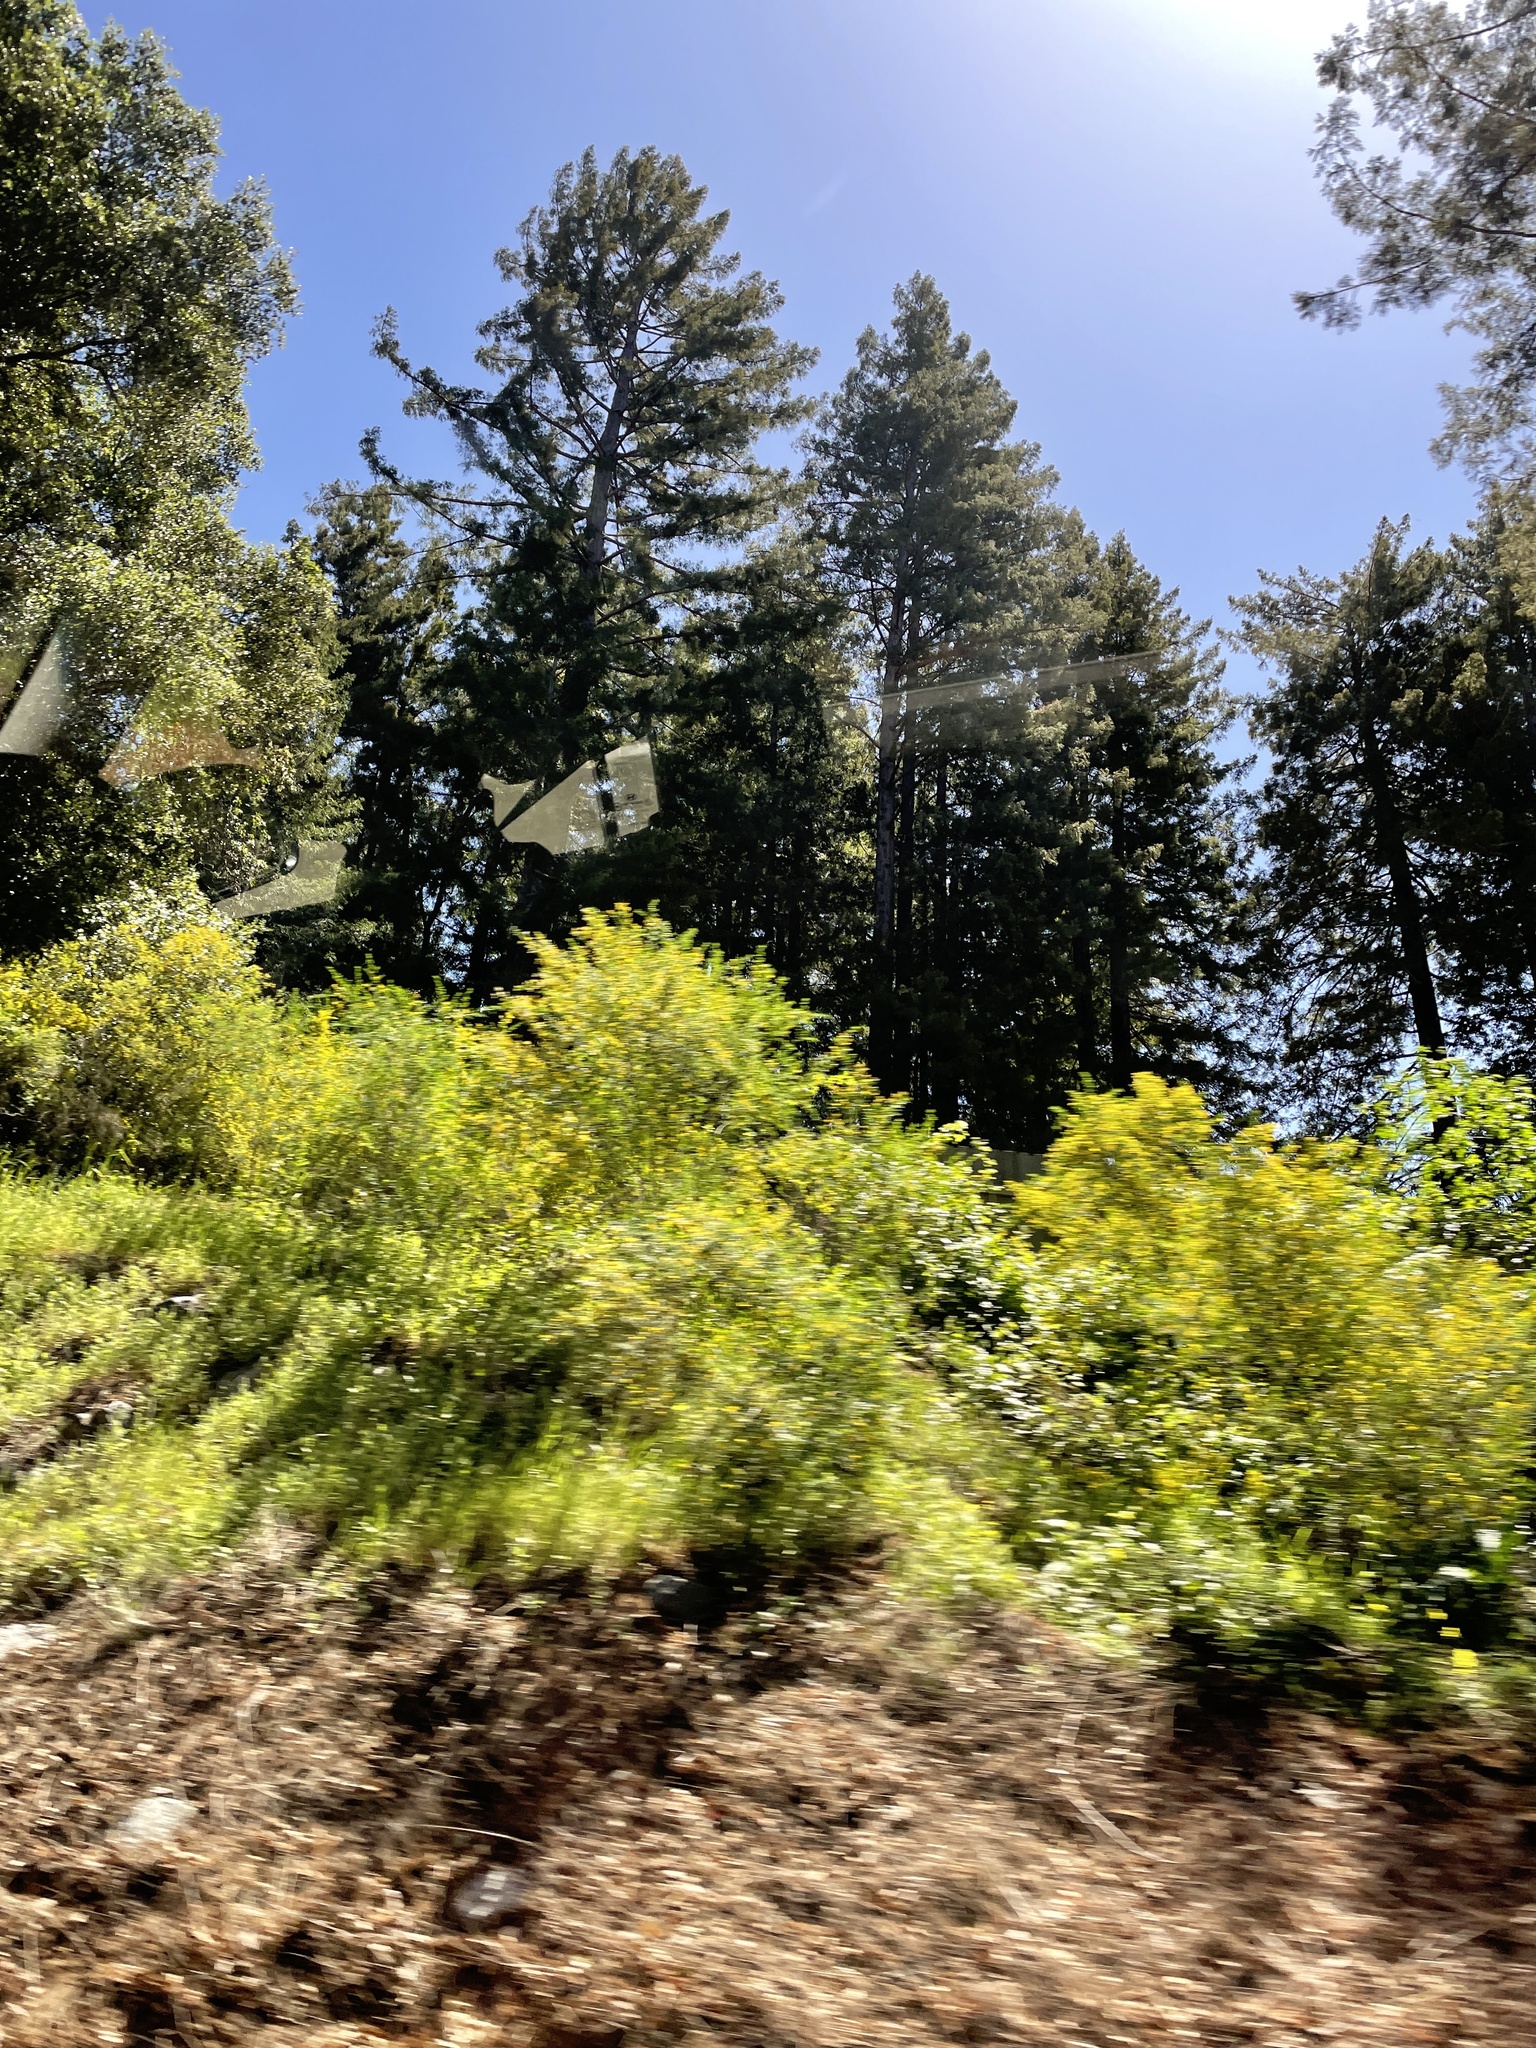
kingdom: Plantae
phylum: Tracheophyta
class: Pinopsida
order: Pinales
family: Cupressaceae
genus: Sequoia
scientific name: Sequoia sempervirens
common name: Coast redwood
